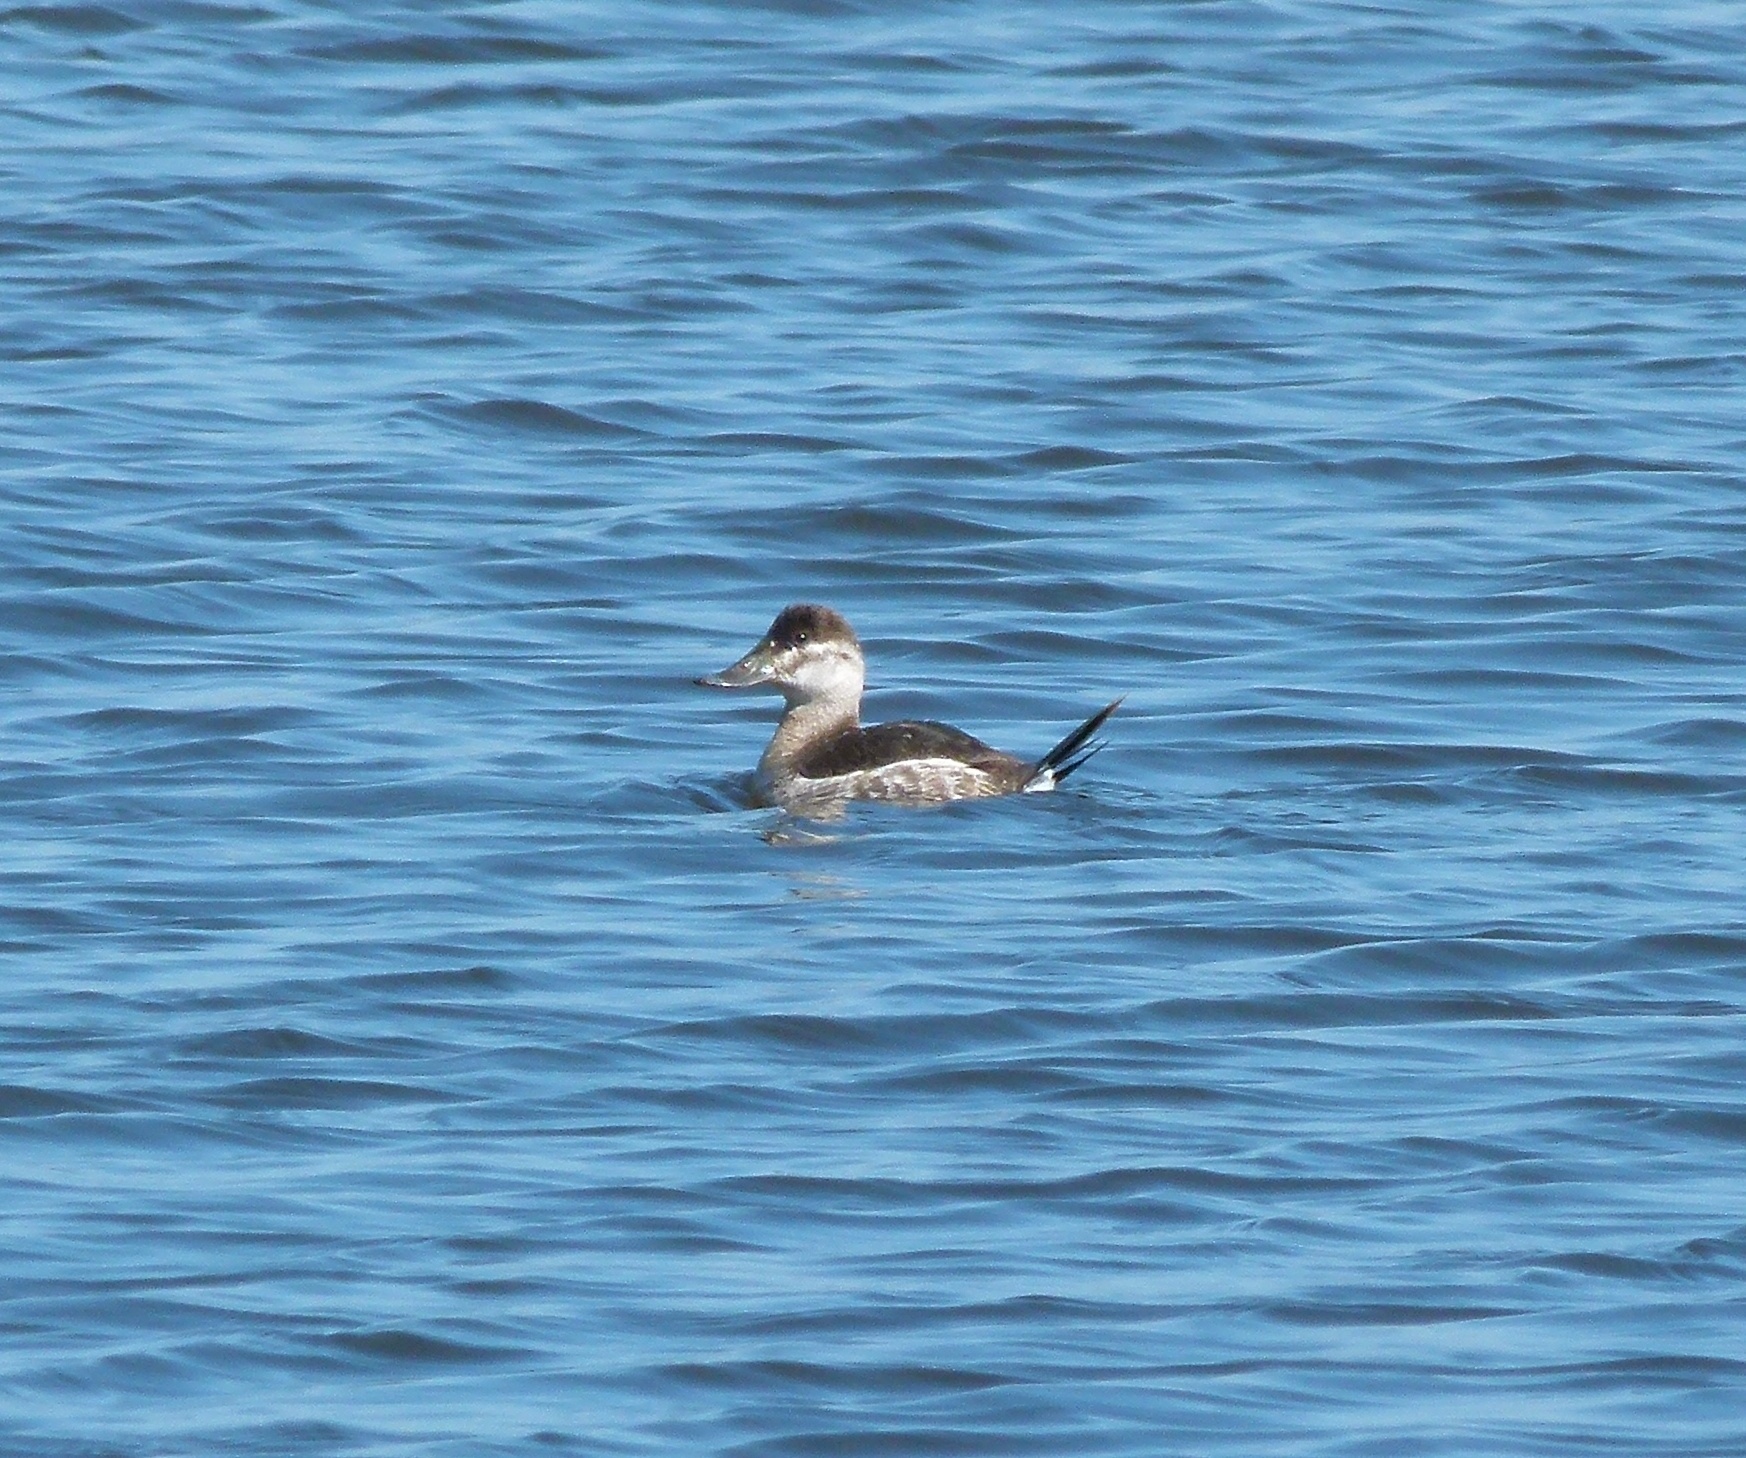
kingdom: Animalia
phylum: Chordata
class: Aves
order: Anseriformes
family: Anatidae
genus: Oxyura
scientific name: Oxyura jamaicensis
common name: Ruddy duck
